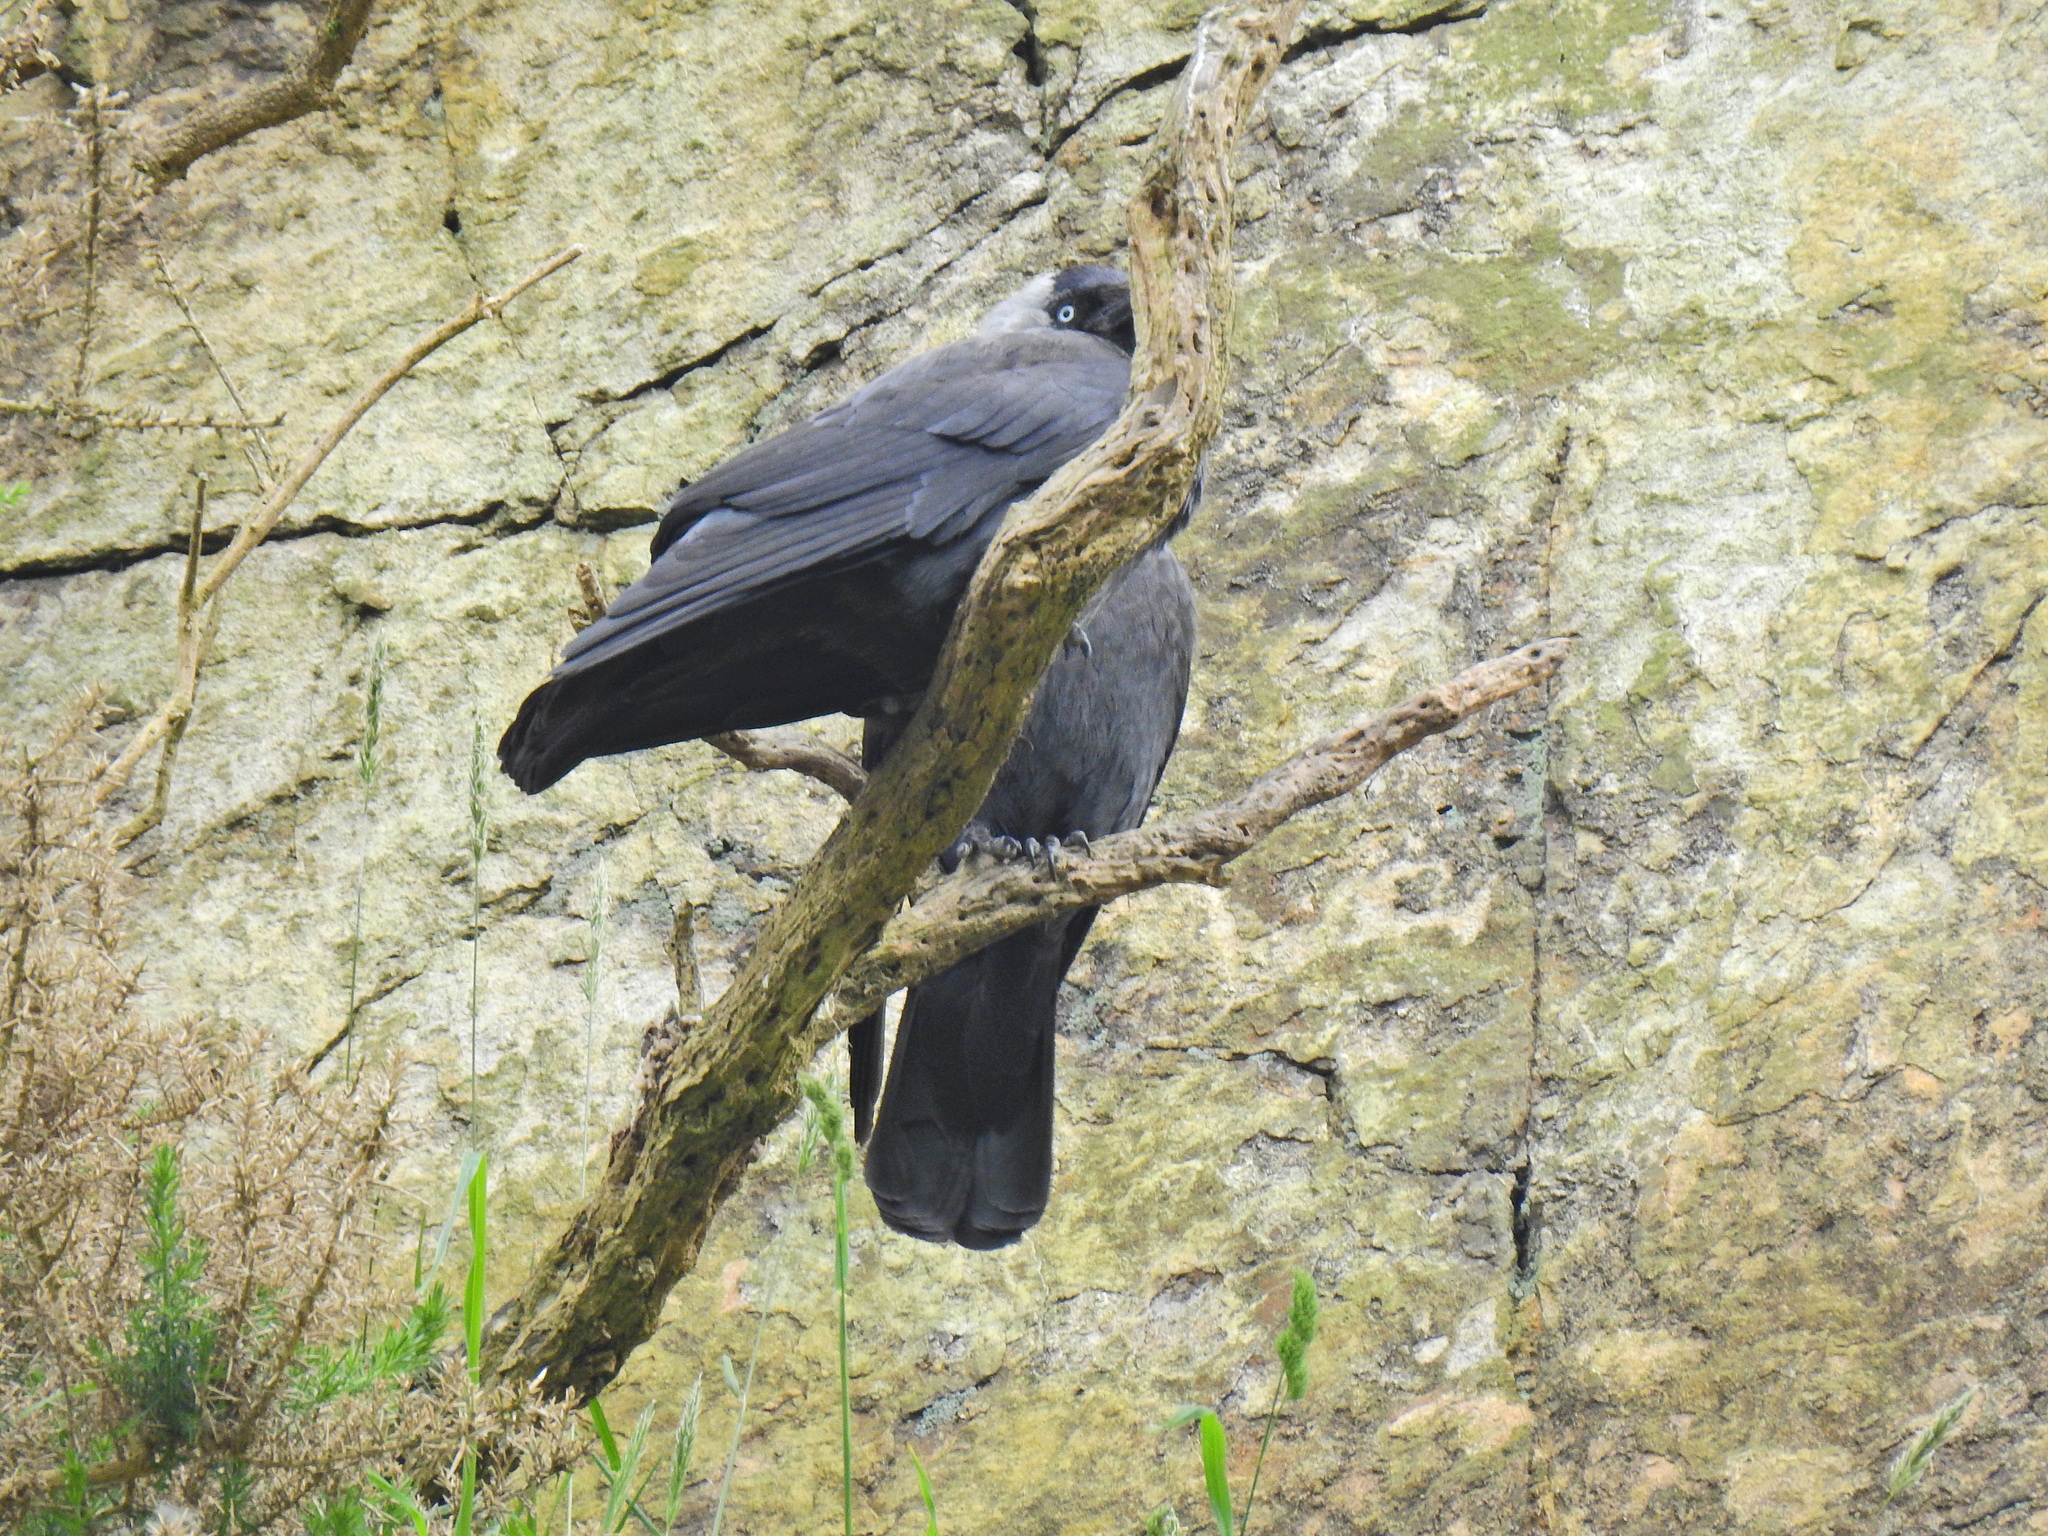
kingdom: Animalia
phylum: Chordata
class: Aves
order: Passeriformes
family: Corvidae
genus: Coloeus
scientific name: Coloeus monedula
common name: Western jackdaw
